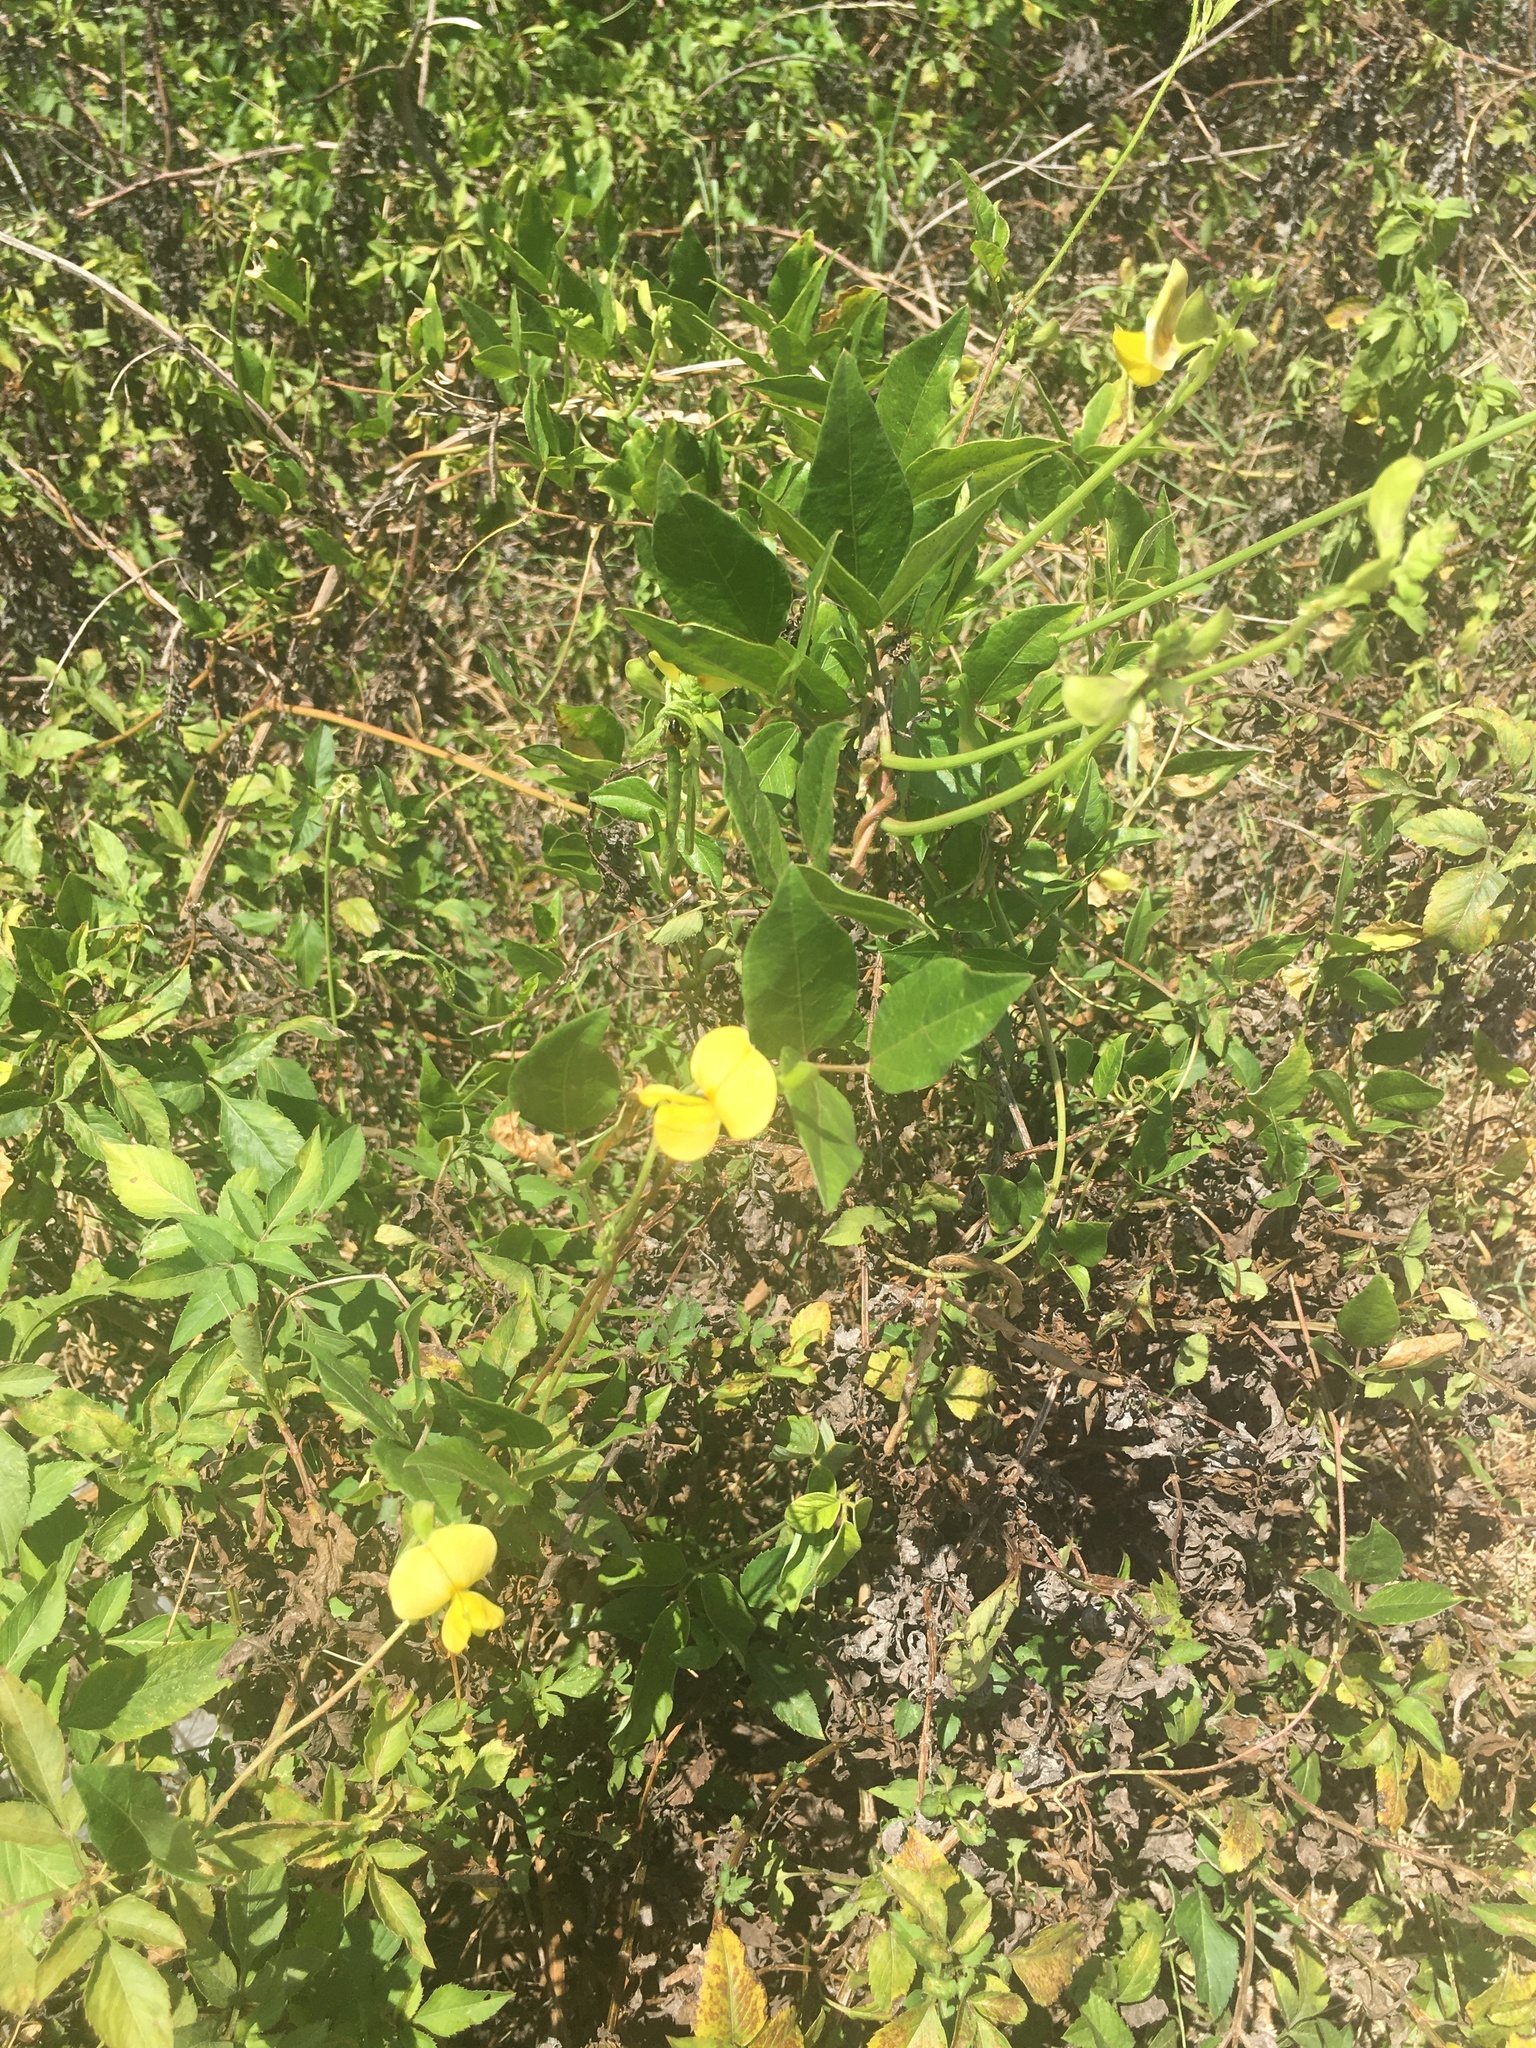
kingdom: Plantae
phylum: Tracheophyta
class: Magnoliopsida
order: Fabales
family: Fabaceae
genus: Vigna
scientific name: Vigna luteola
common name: Hairypod cowpea
